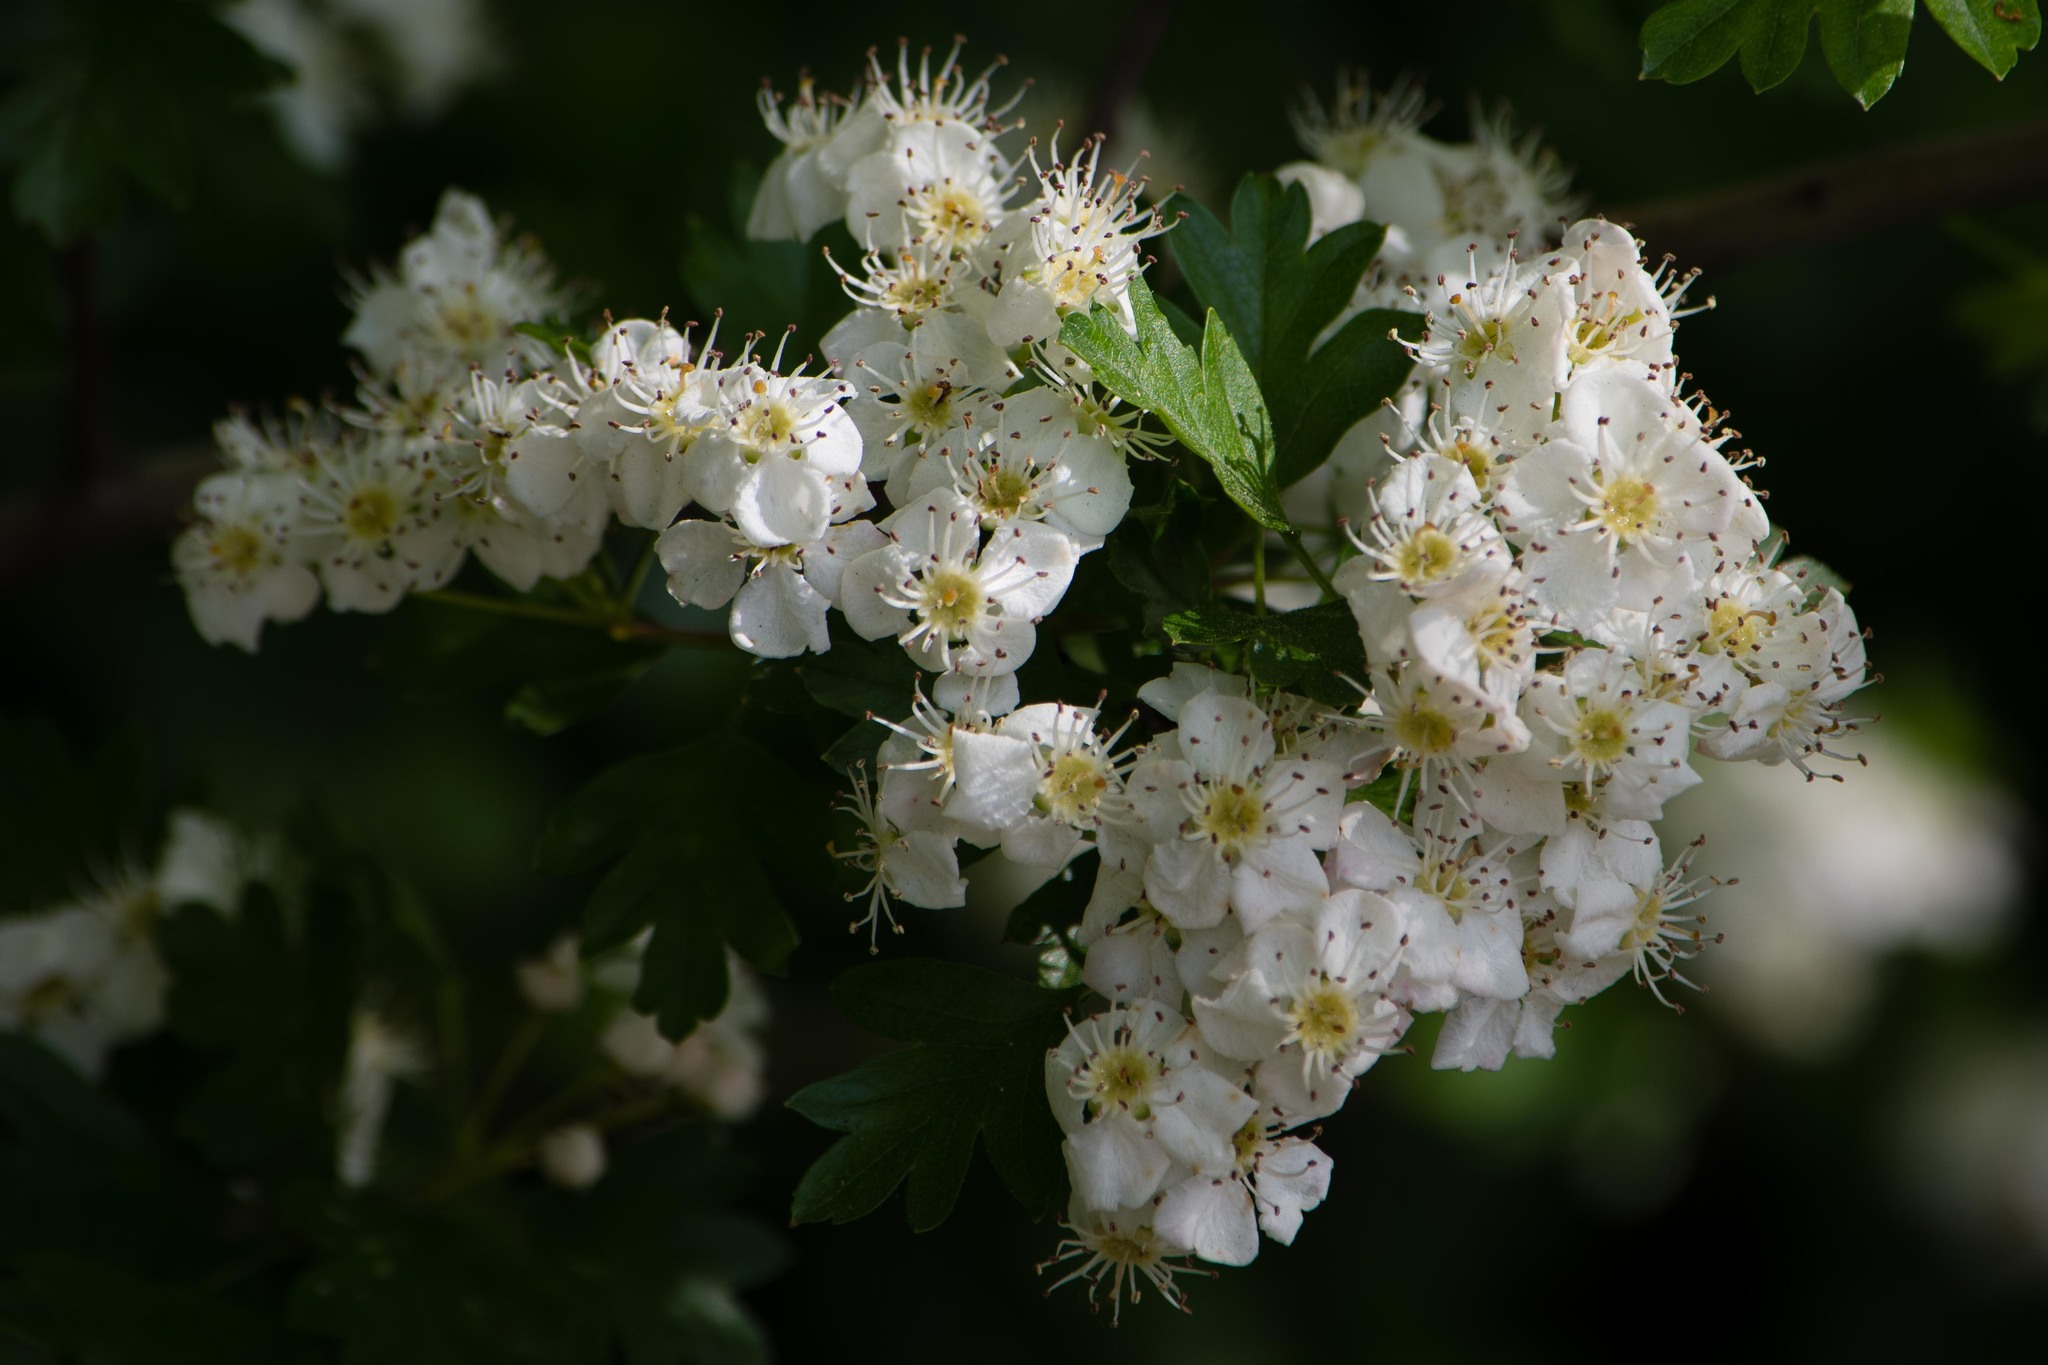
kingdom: Plantae
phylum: Tracheophyta
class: Magnoliopsida
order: Rosales
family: Rosaceae
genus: Crataegus
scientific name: Crataegus monogyna
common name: Hawthorn
